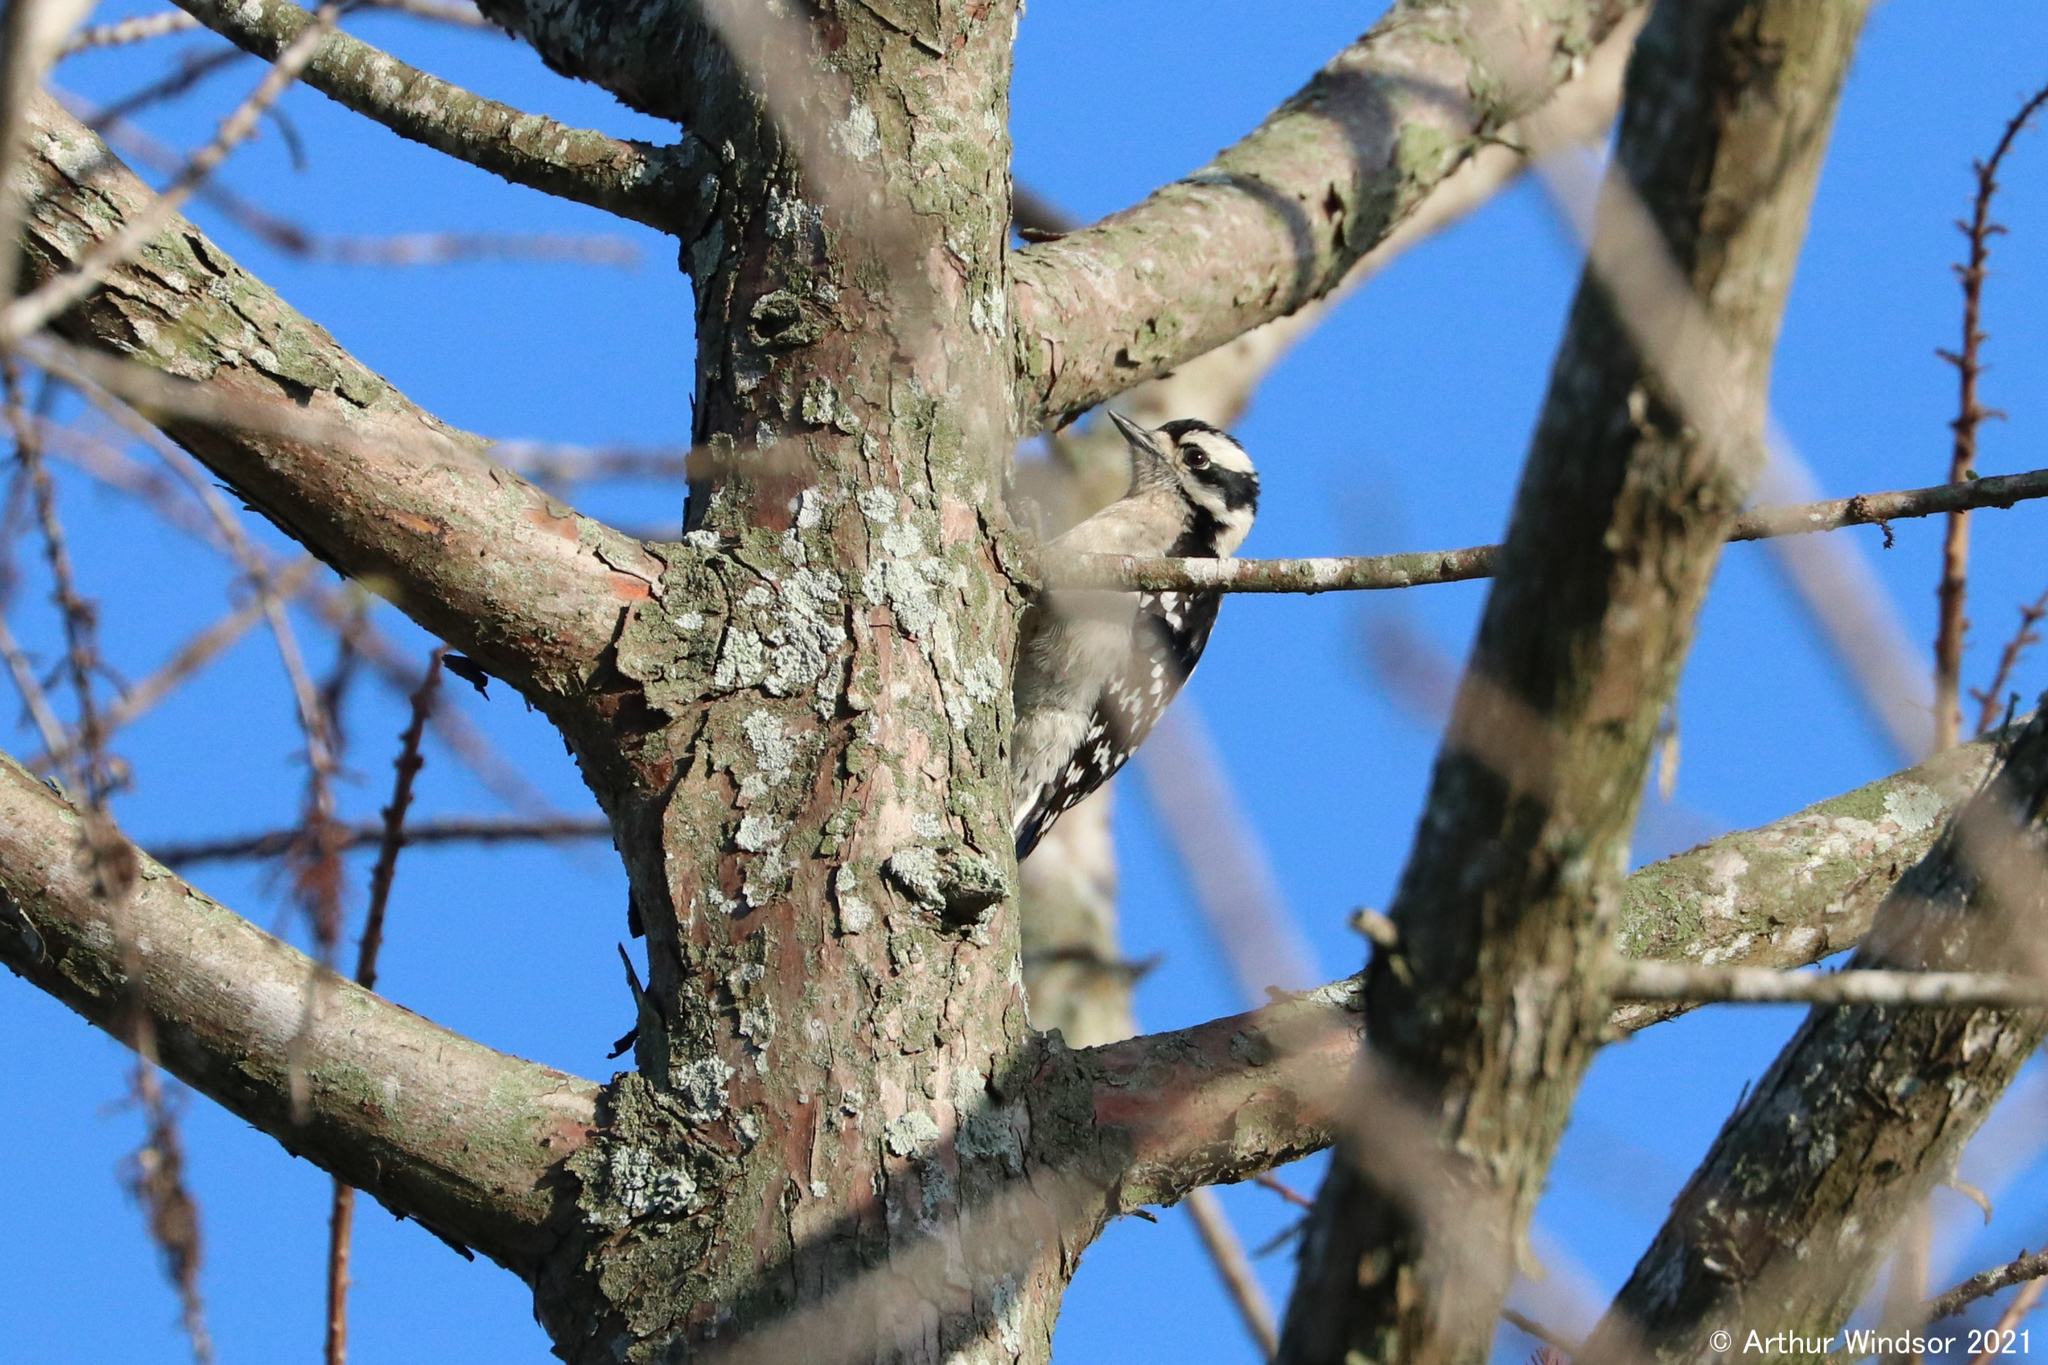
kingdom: Animalia
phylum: Chordata
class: Aves
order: Piciformes
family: Picidae
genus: Dryobates
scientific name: Dryobates pubescens
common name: Downy woodpecker
